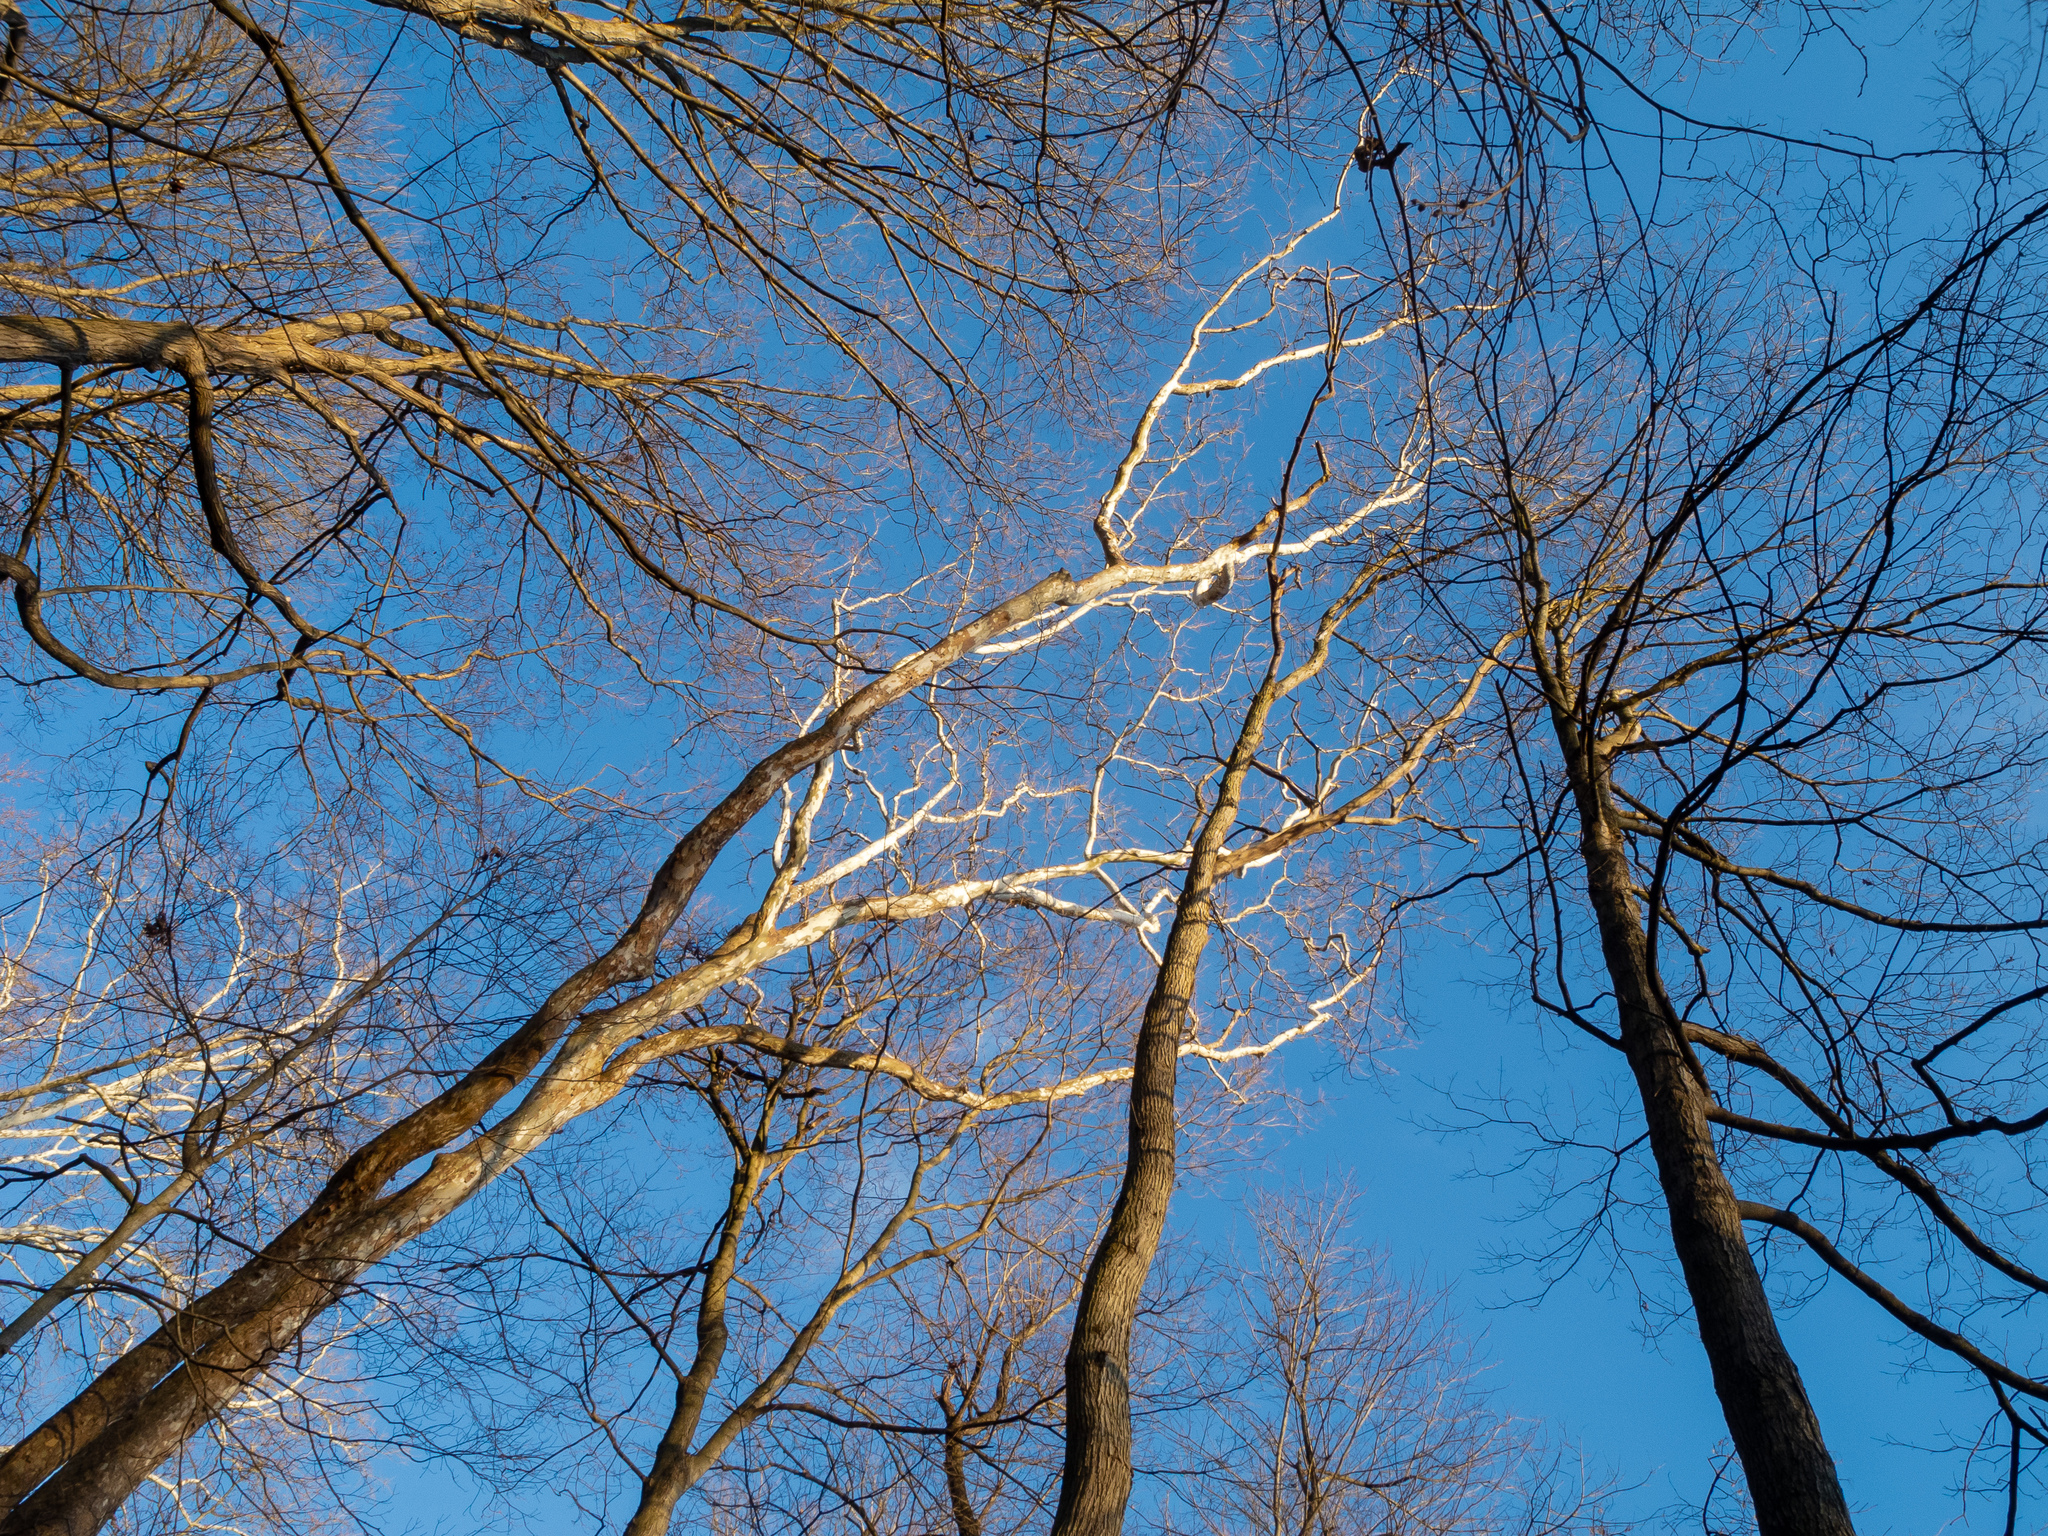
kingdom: Plantae
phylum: Tracheophyta
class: Magnoliopsida
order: Proteales
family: Platanaceae
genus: Platanus
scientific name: Platanus occidentalis
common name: American sycamore
